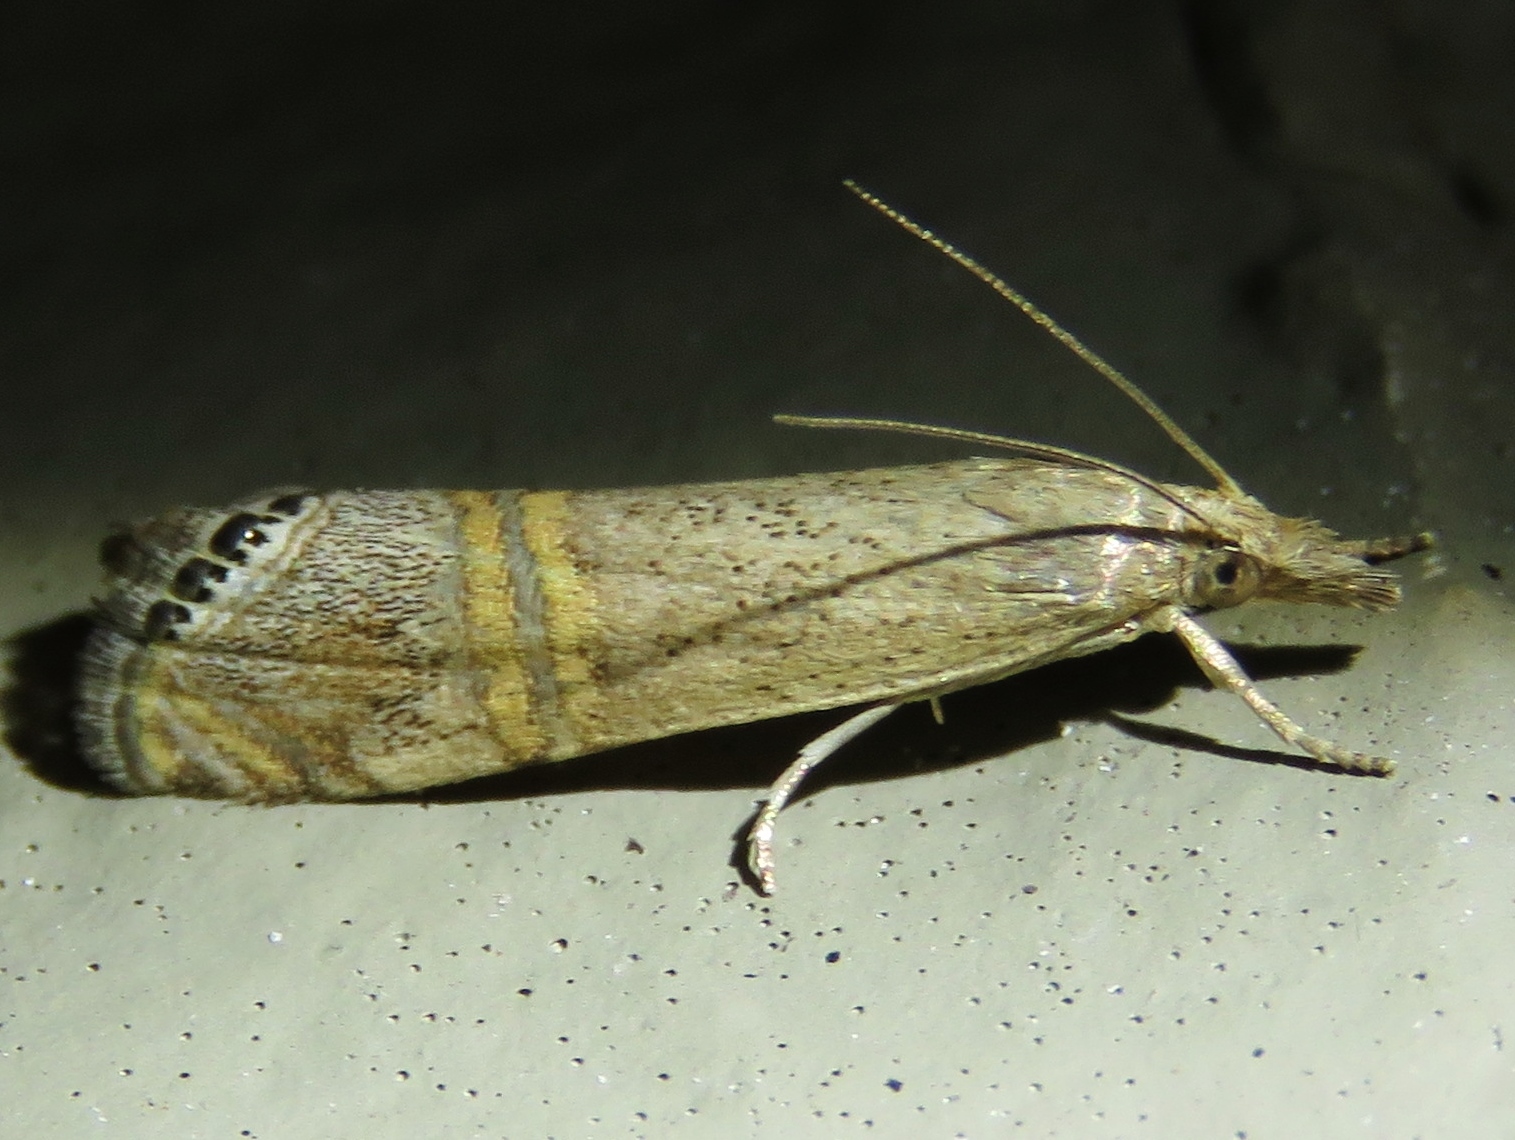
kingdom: Animalia
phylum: Arthropoda
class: Insecta
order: Lepidoptera
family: Crambidae
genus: Euchromius
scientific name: Euchromius ocellea
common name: Necklace veneer moth
